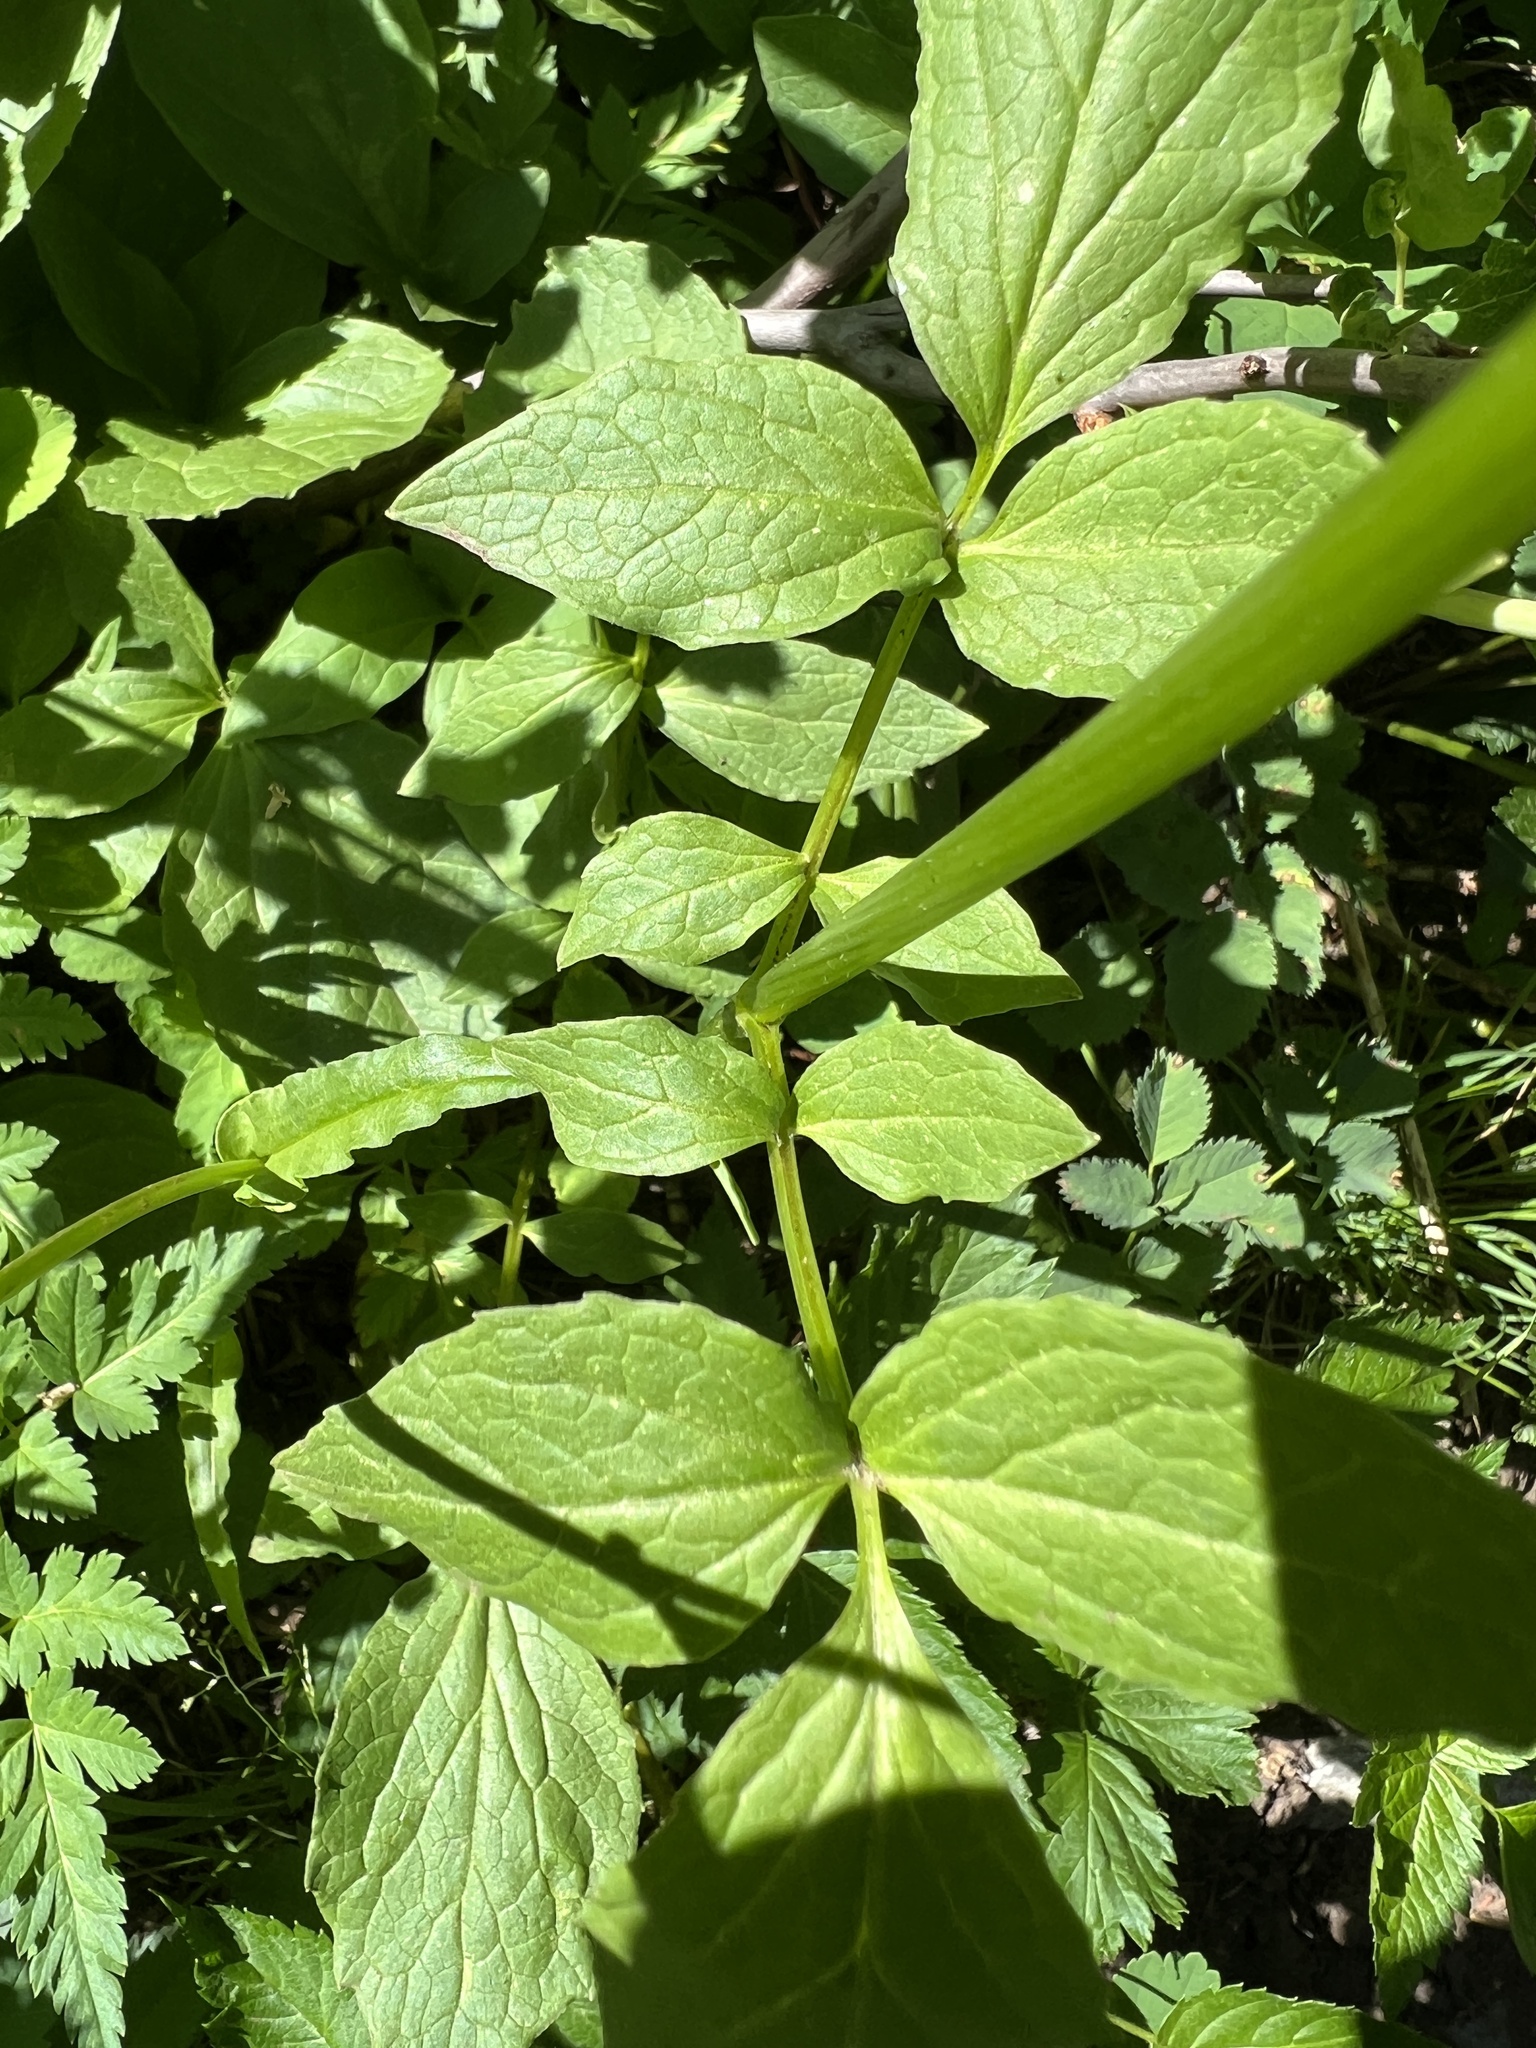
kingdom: Plantae
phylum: Tracheophyta
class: Magnoliopsida
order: Dipsacales
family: Caprifoliaceae
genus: Valeriana
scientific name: Valeriana sitchensis
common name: Pacific valerian
